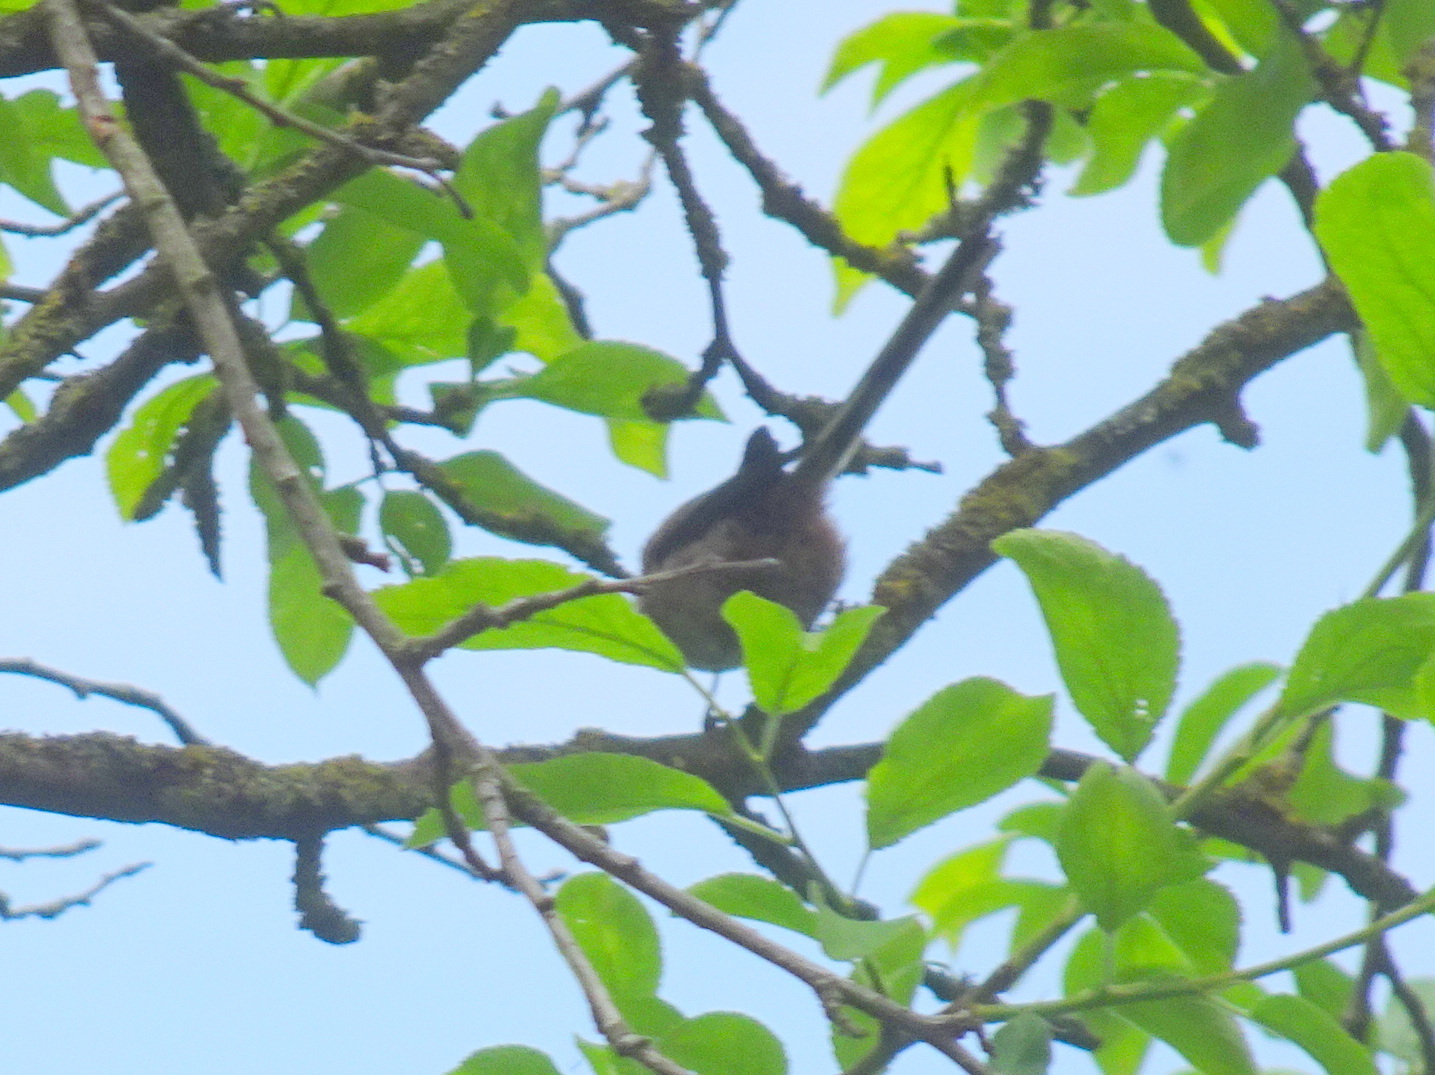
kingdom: Animalia
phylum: Chordata
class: Aves
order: Passeriformes
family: Aegithalidae
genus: Aegithalos
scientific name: Aegithalos caudatus
